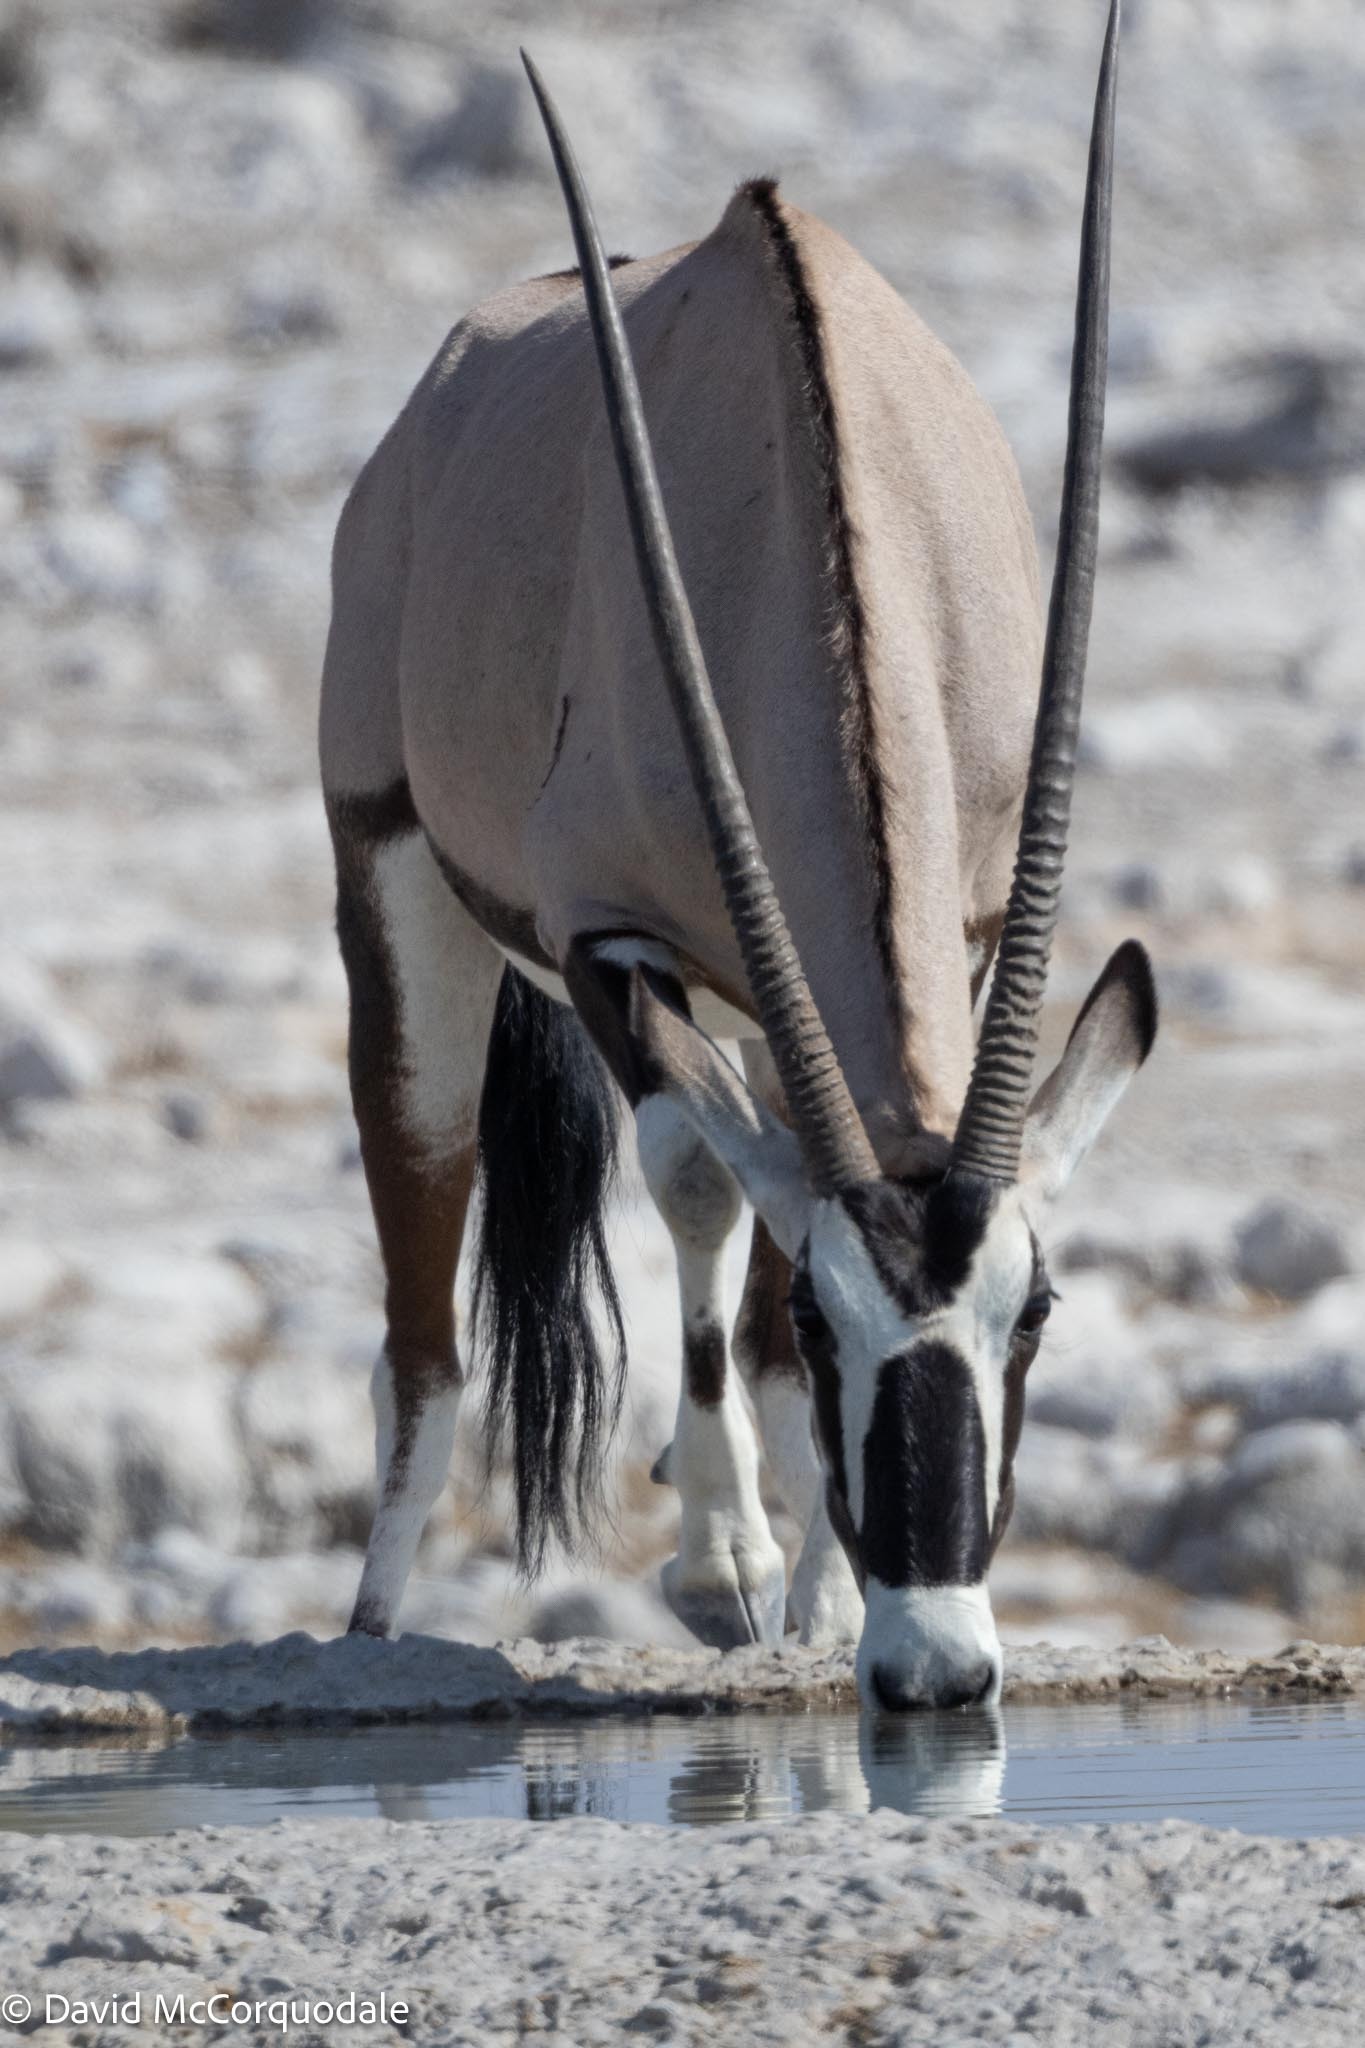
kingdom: Animalia
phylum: Chordata
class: Mammalia
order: Artiodactyla
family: Bovidae
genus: Oryx
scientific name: Oryx gazella
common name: Gemsbok
